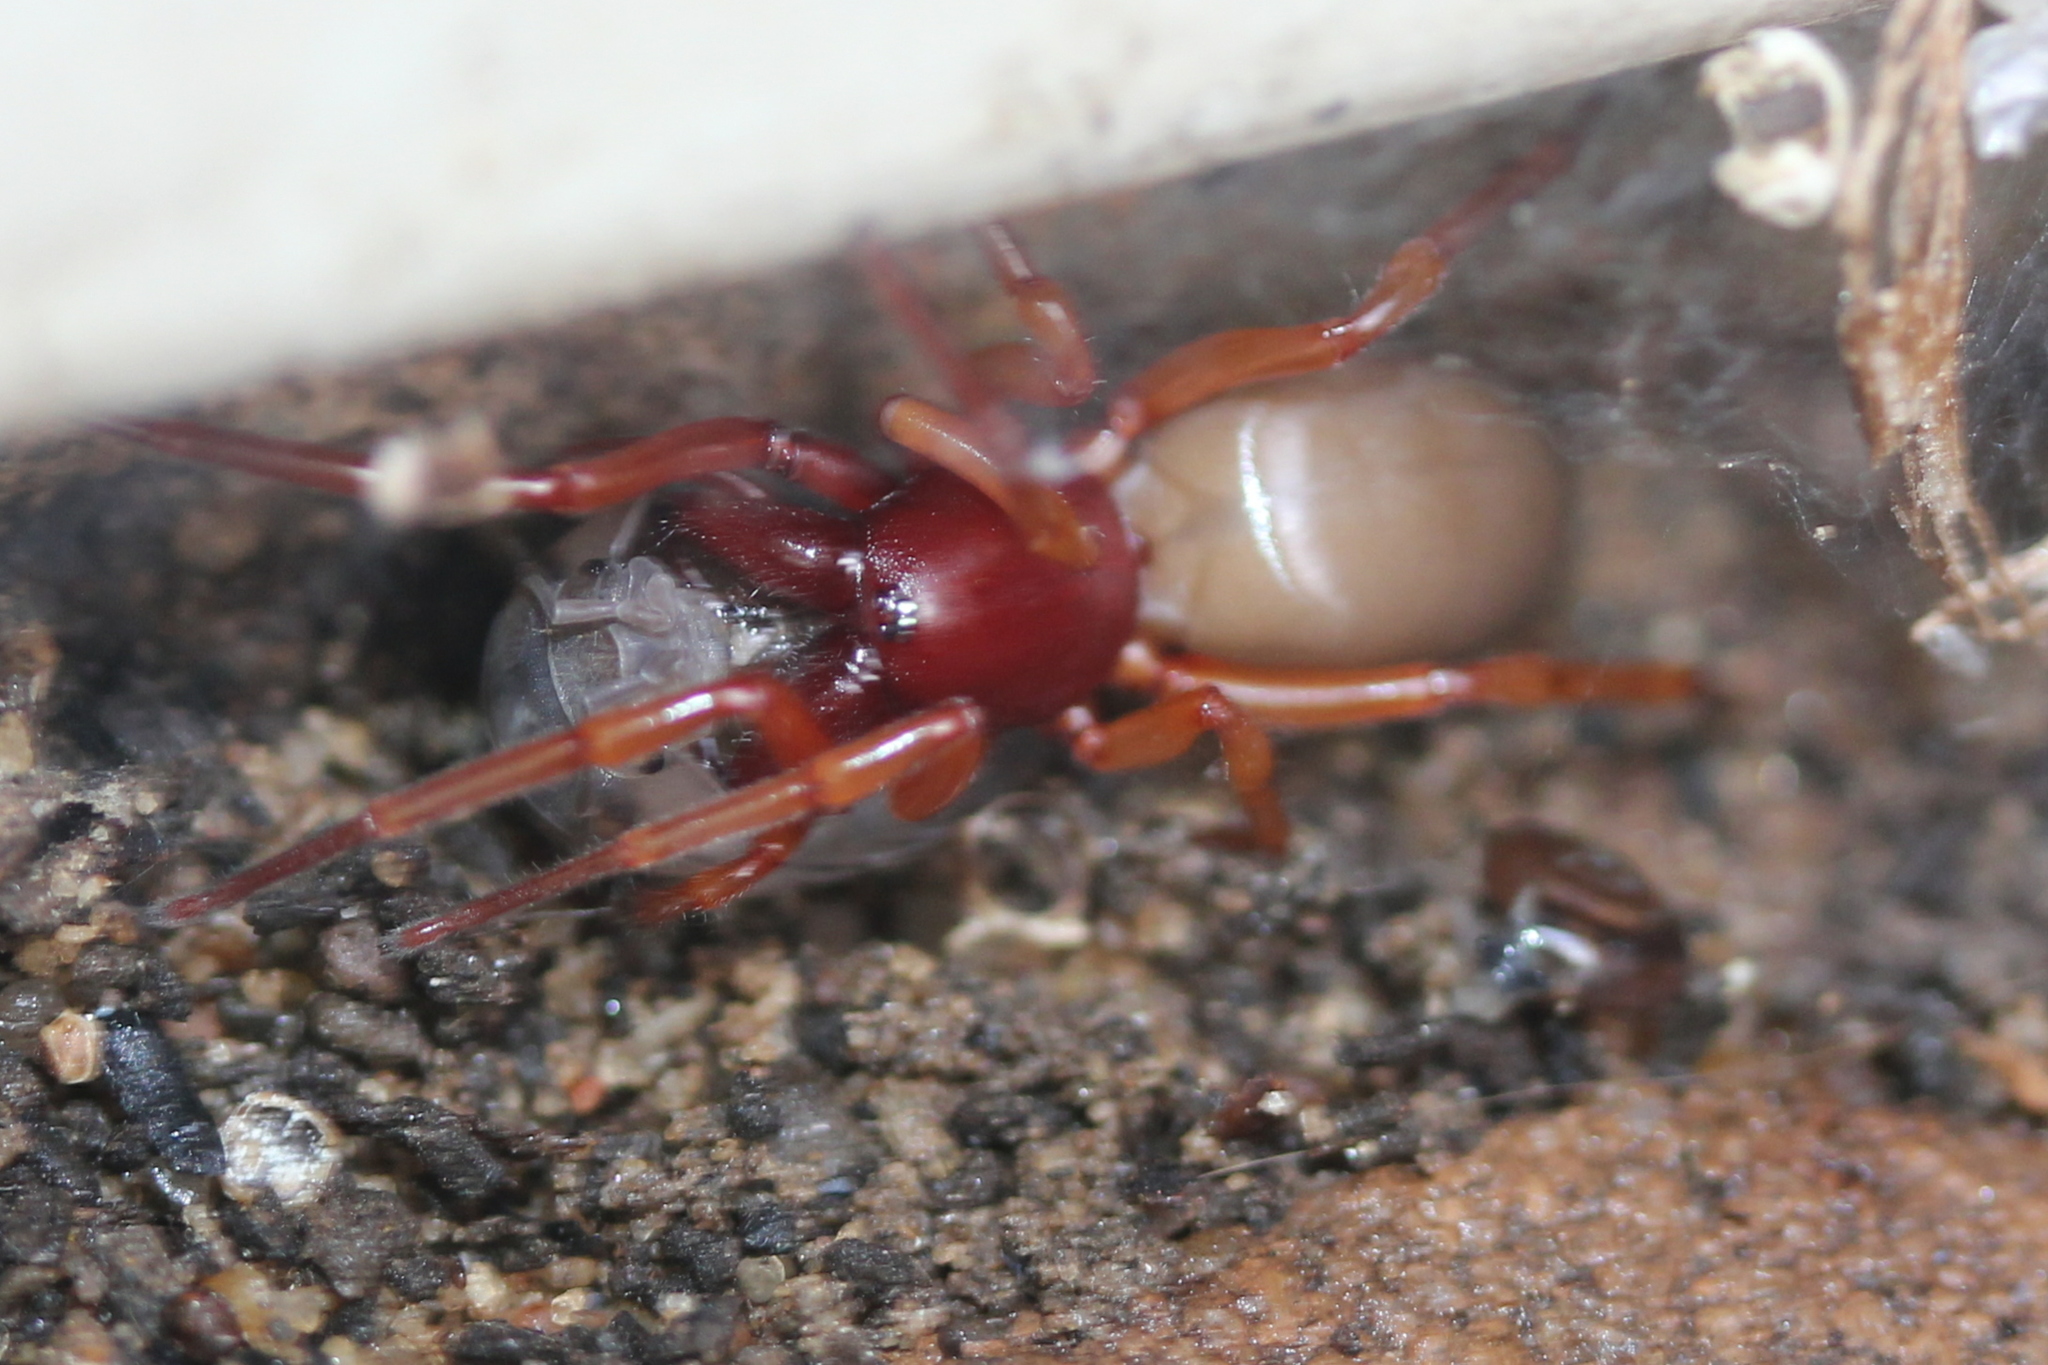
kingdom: Animalia
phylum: Arthropoda
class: Arachnida
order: Araneae
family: Dysderidae
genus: Dysdera
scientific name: Dysdera crocata
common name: Woodlouse spider
